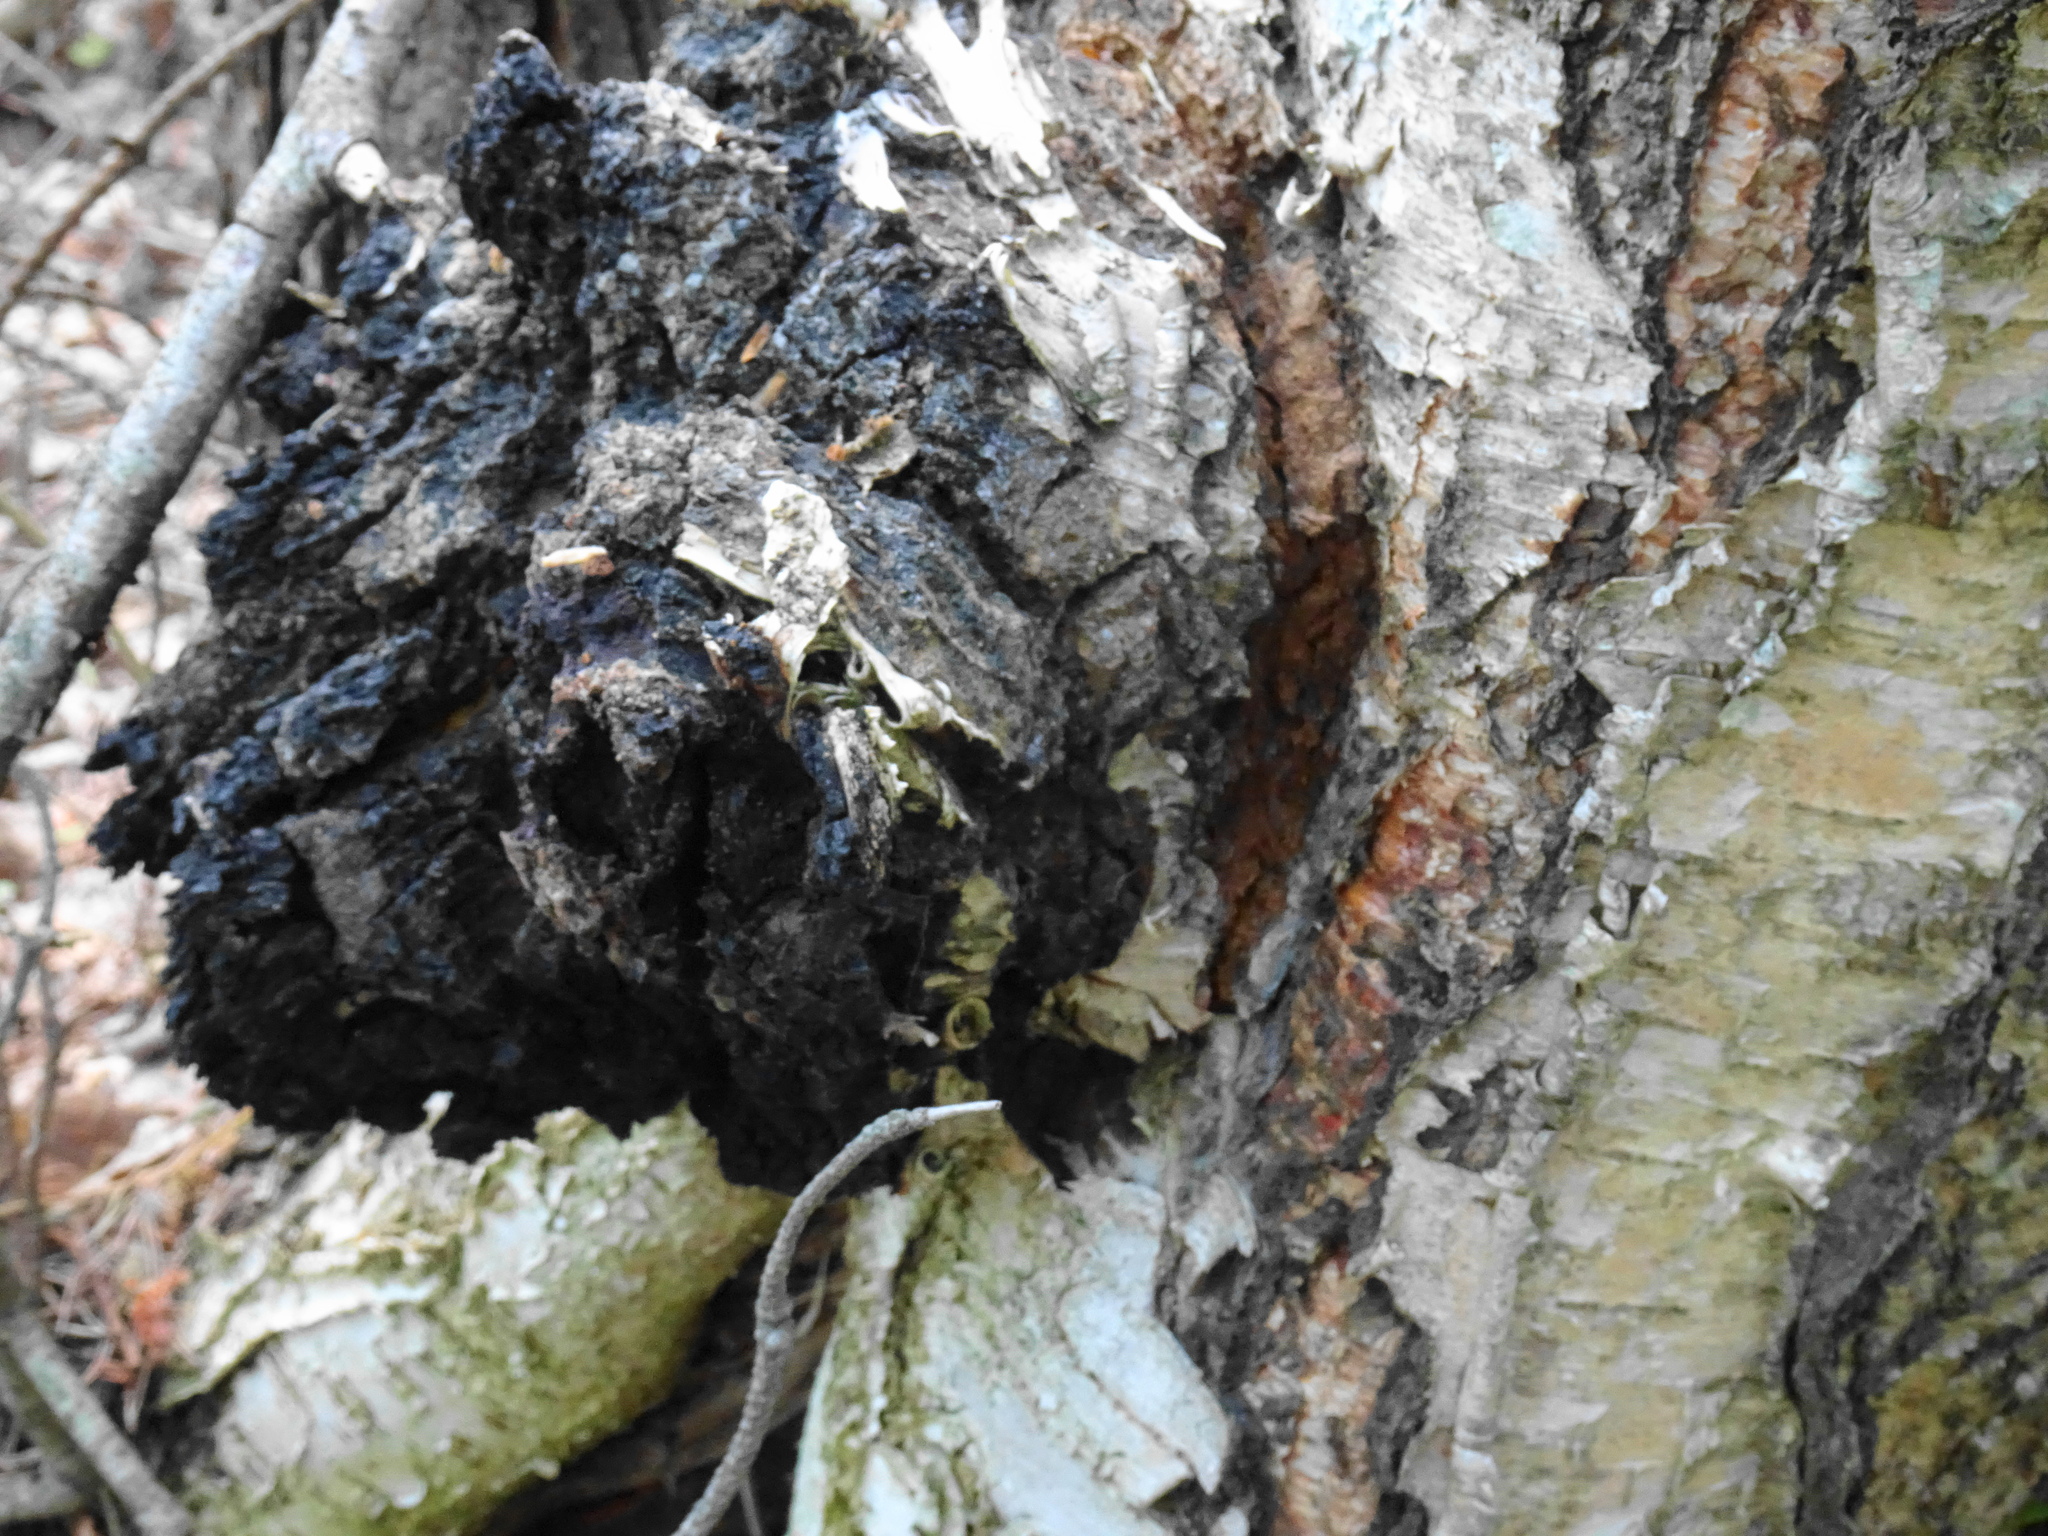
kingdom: Fungi
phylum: Basidiomycota
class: Agaricomycetes
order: Hymenochaetales
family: Hymenochaetaceae
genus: Inonotus
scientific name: Inonotus obliquus
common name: Chaga
